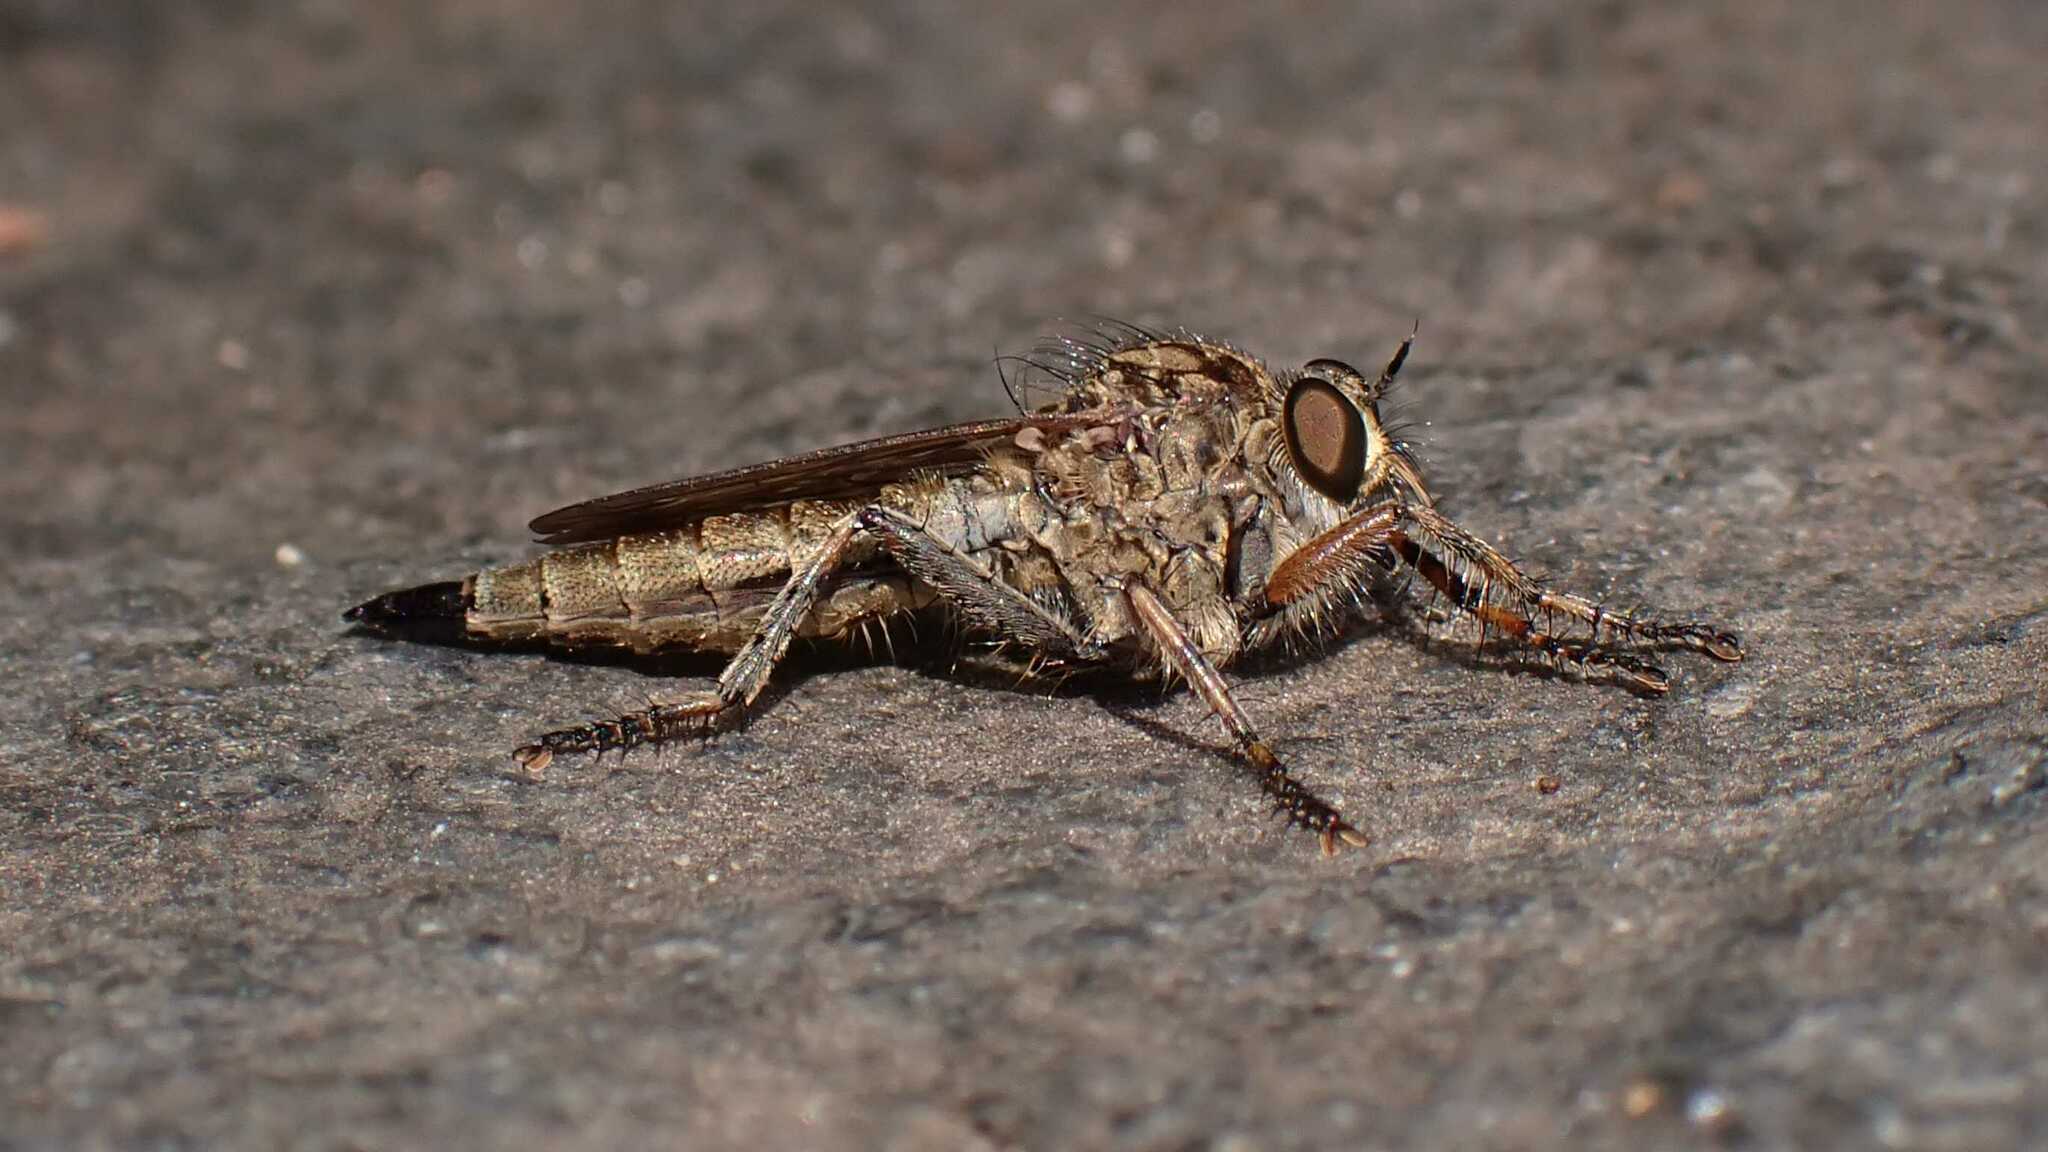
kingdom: Animalia
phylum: Arthropoda
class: Insecta
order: Diptera
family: Asilidae
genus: Epitriptus
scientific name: Epitriptus cingulatus
